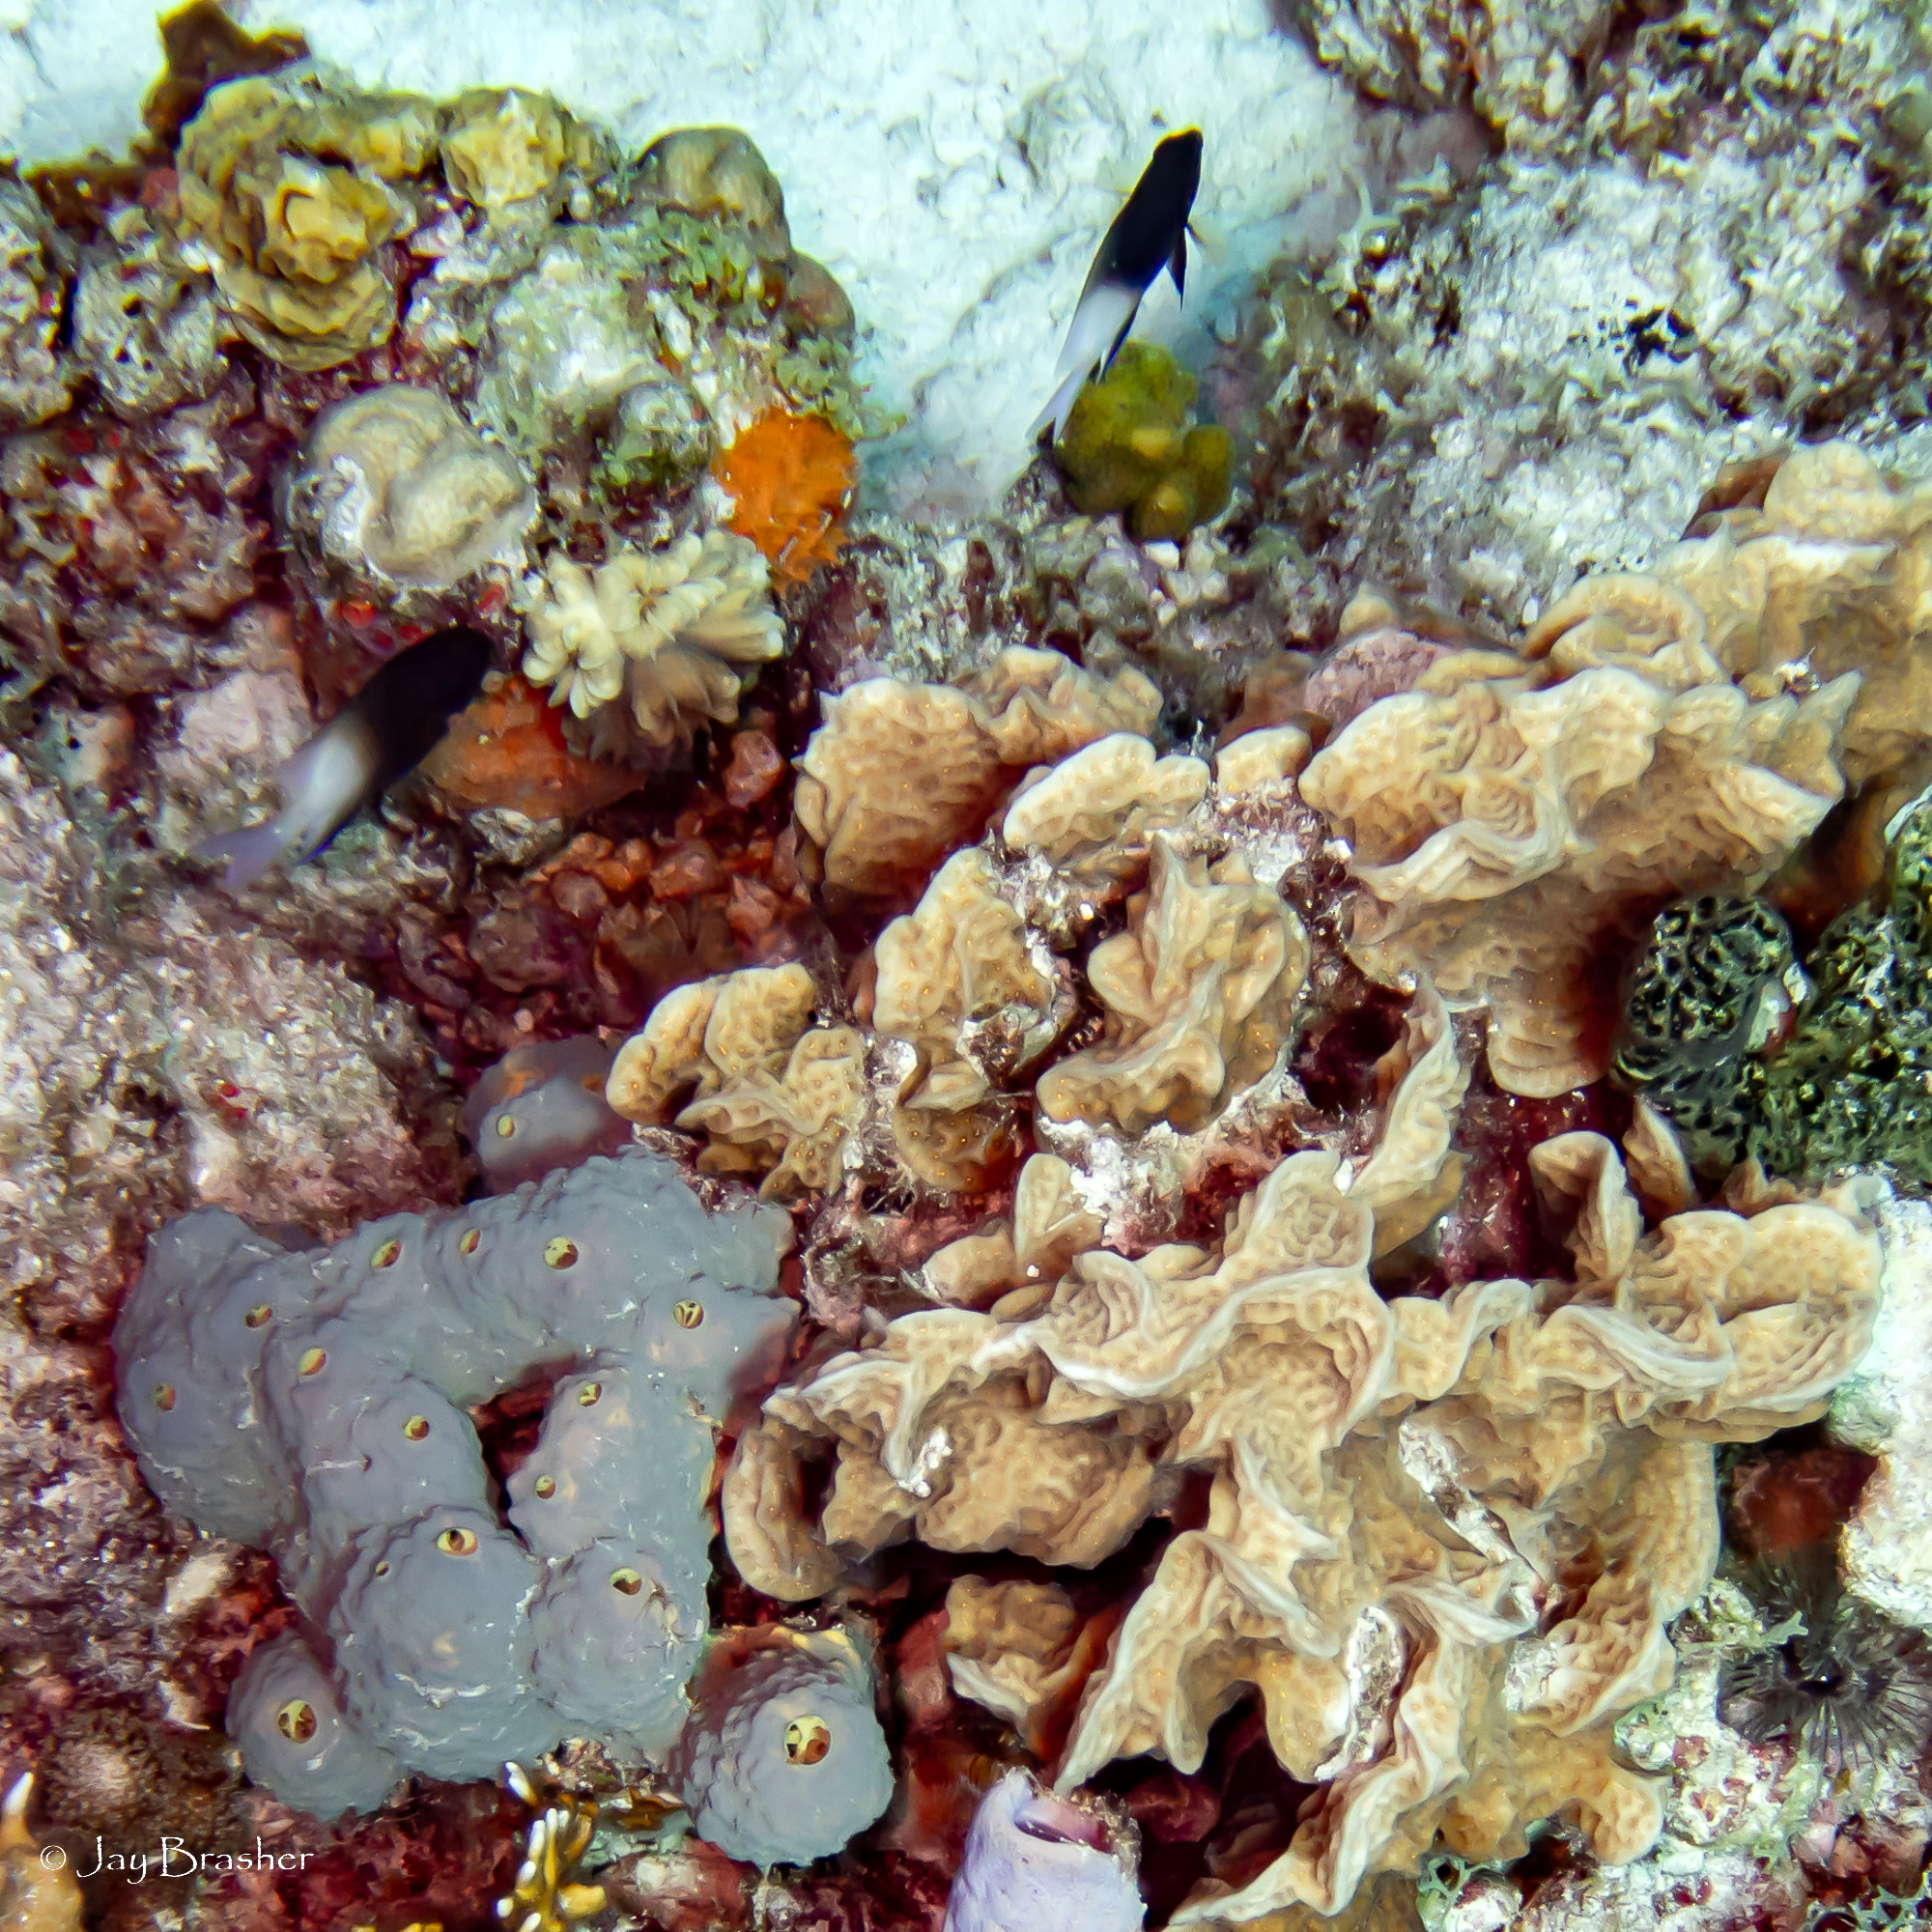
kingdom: Animalia
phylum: Porifera
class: Demospongiae
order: Verongiida
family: Aplysinidae
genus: Aiolochroia
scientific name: Aiolochroia crassa
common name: Branching tube sponge
